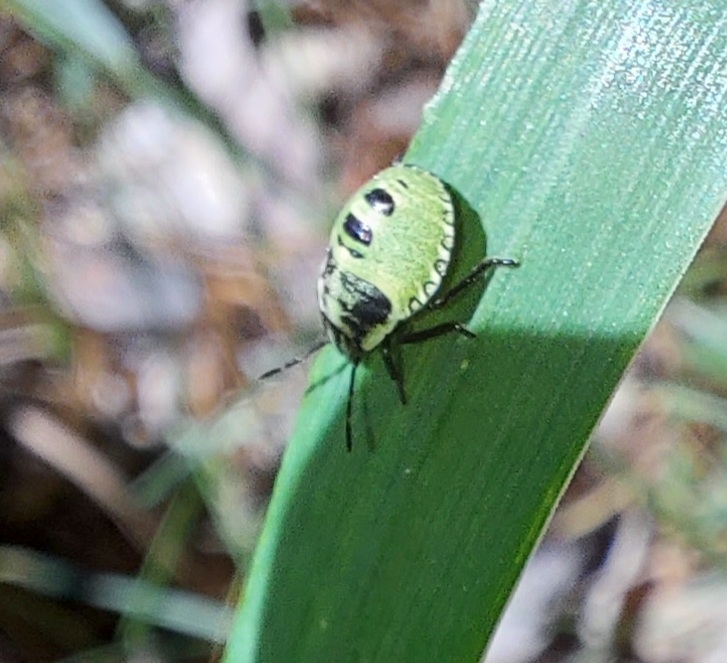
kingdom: Animalia
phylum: Arthropoda
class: Insecta
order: Hemiptera
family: Pentatomidae
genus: Palomena
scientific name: Palomena prasina
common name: Green shieldbug
